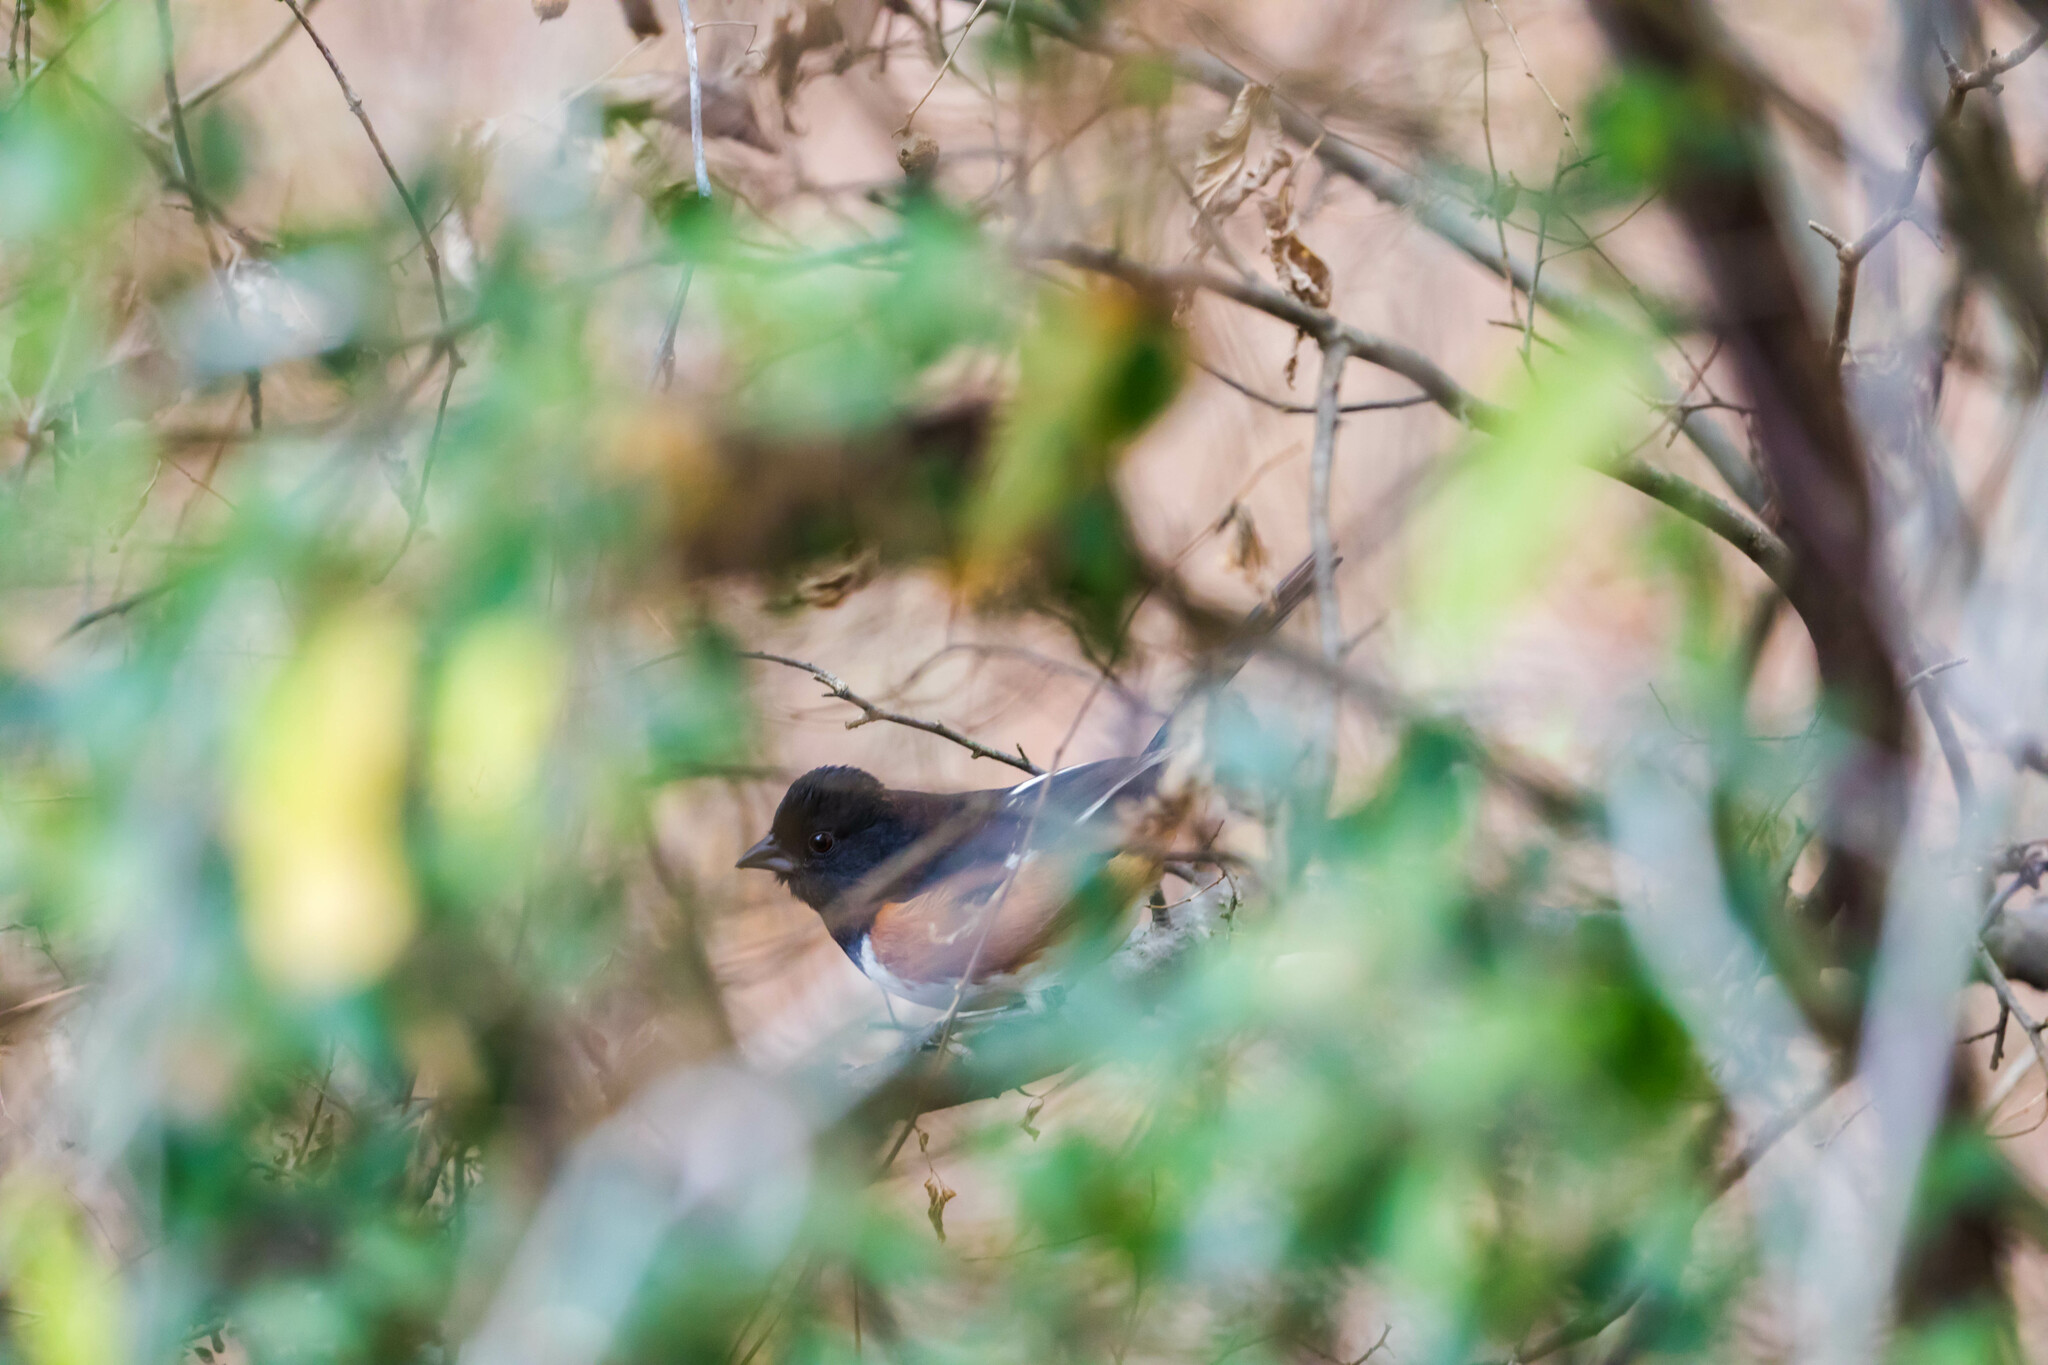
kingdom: Animalia
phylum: Chordata
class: Aves
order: Passeriformes
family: Passerellidae
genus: Pipilo
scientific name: Pipilo erythrophthalmus
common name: Eastern towhee
